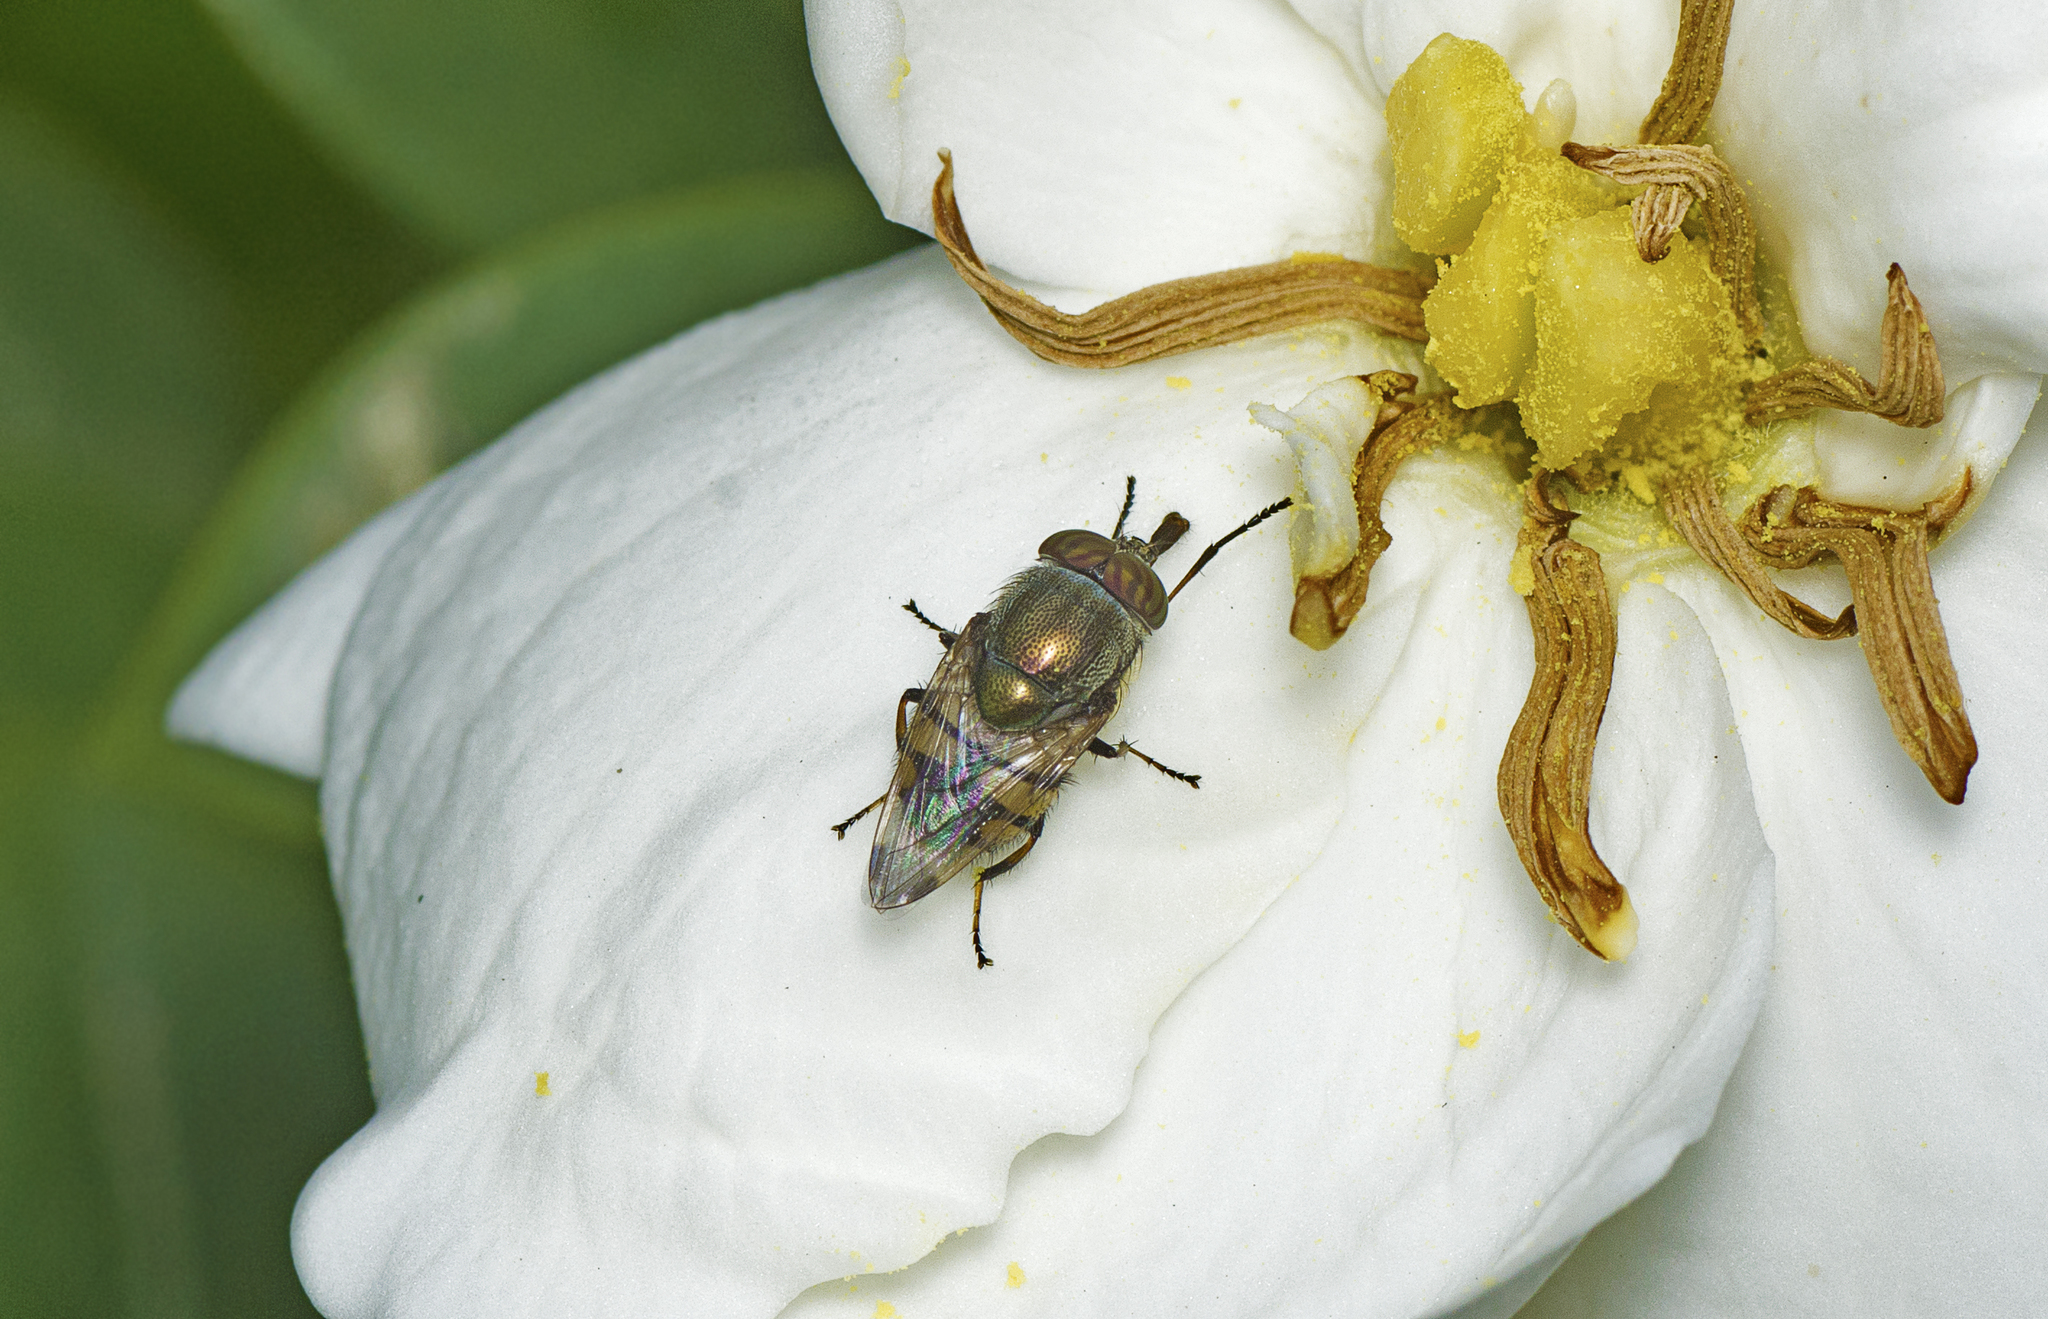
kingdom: Animalia
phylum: Arthropoda
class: Insecta
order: Diptera
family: Calliphoridae
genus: Stomorhina
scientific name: Stomorhina discolor
